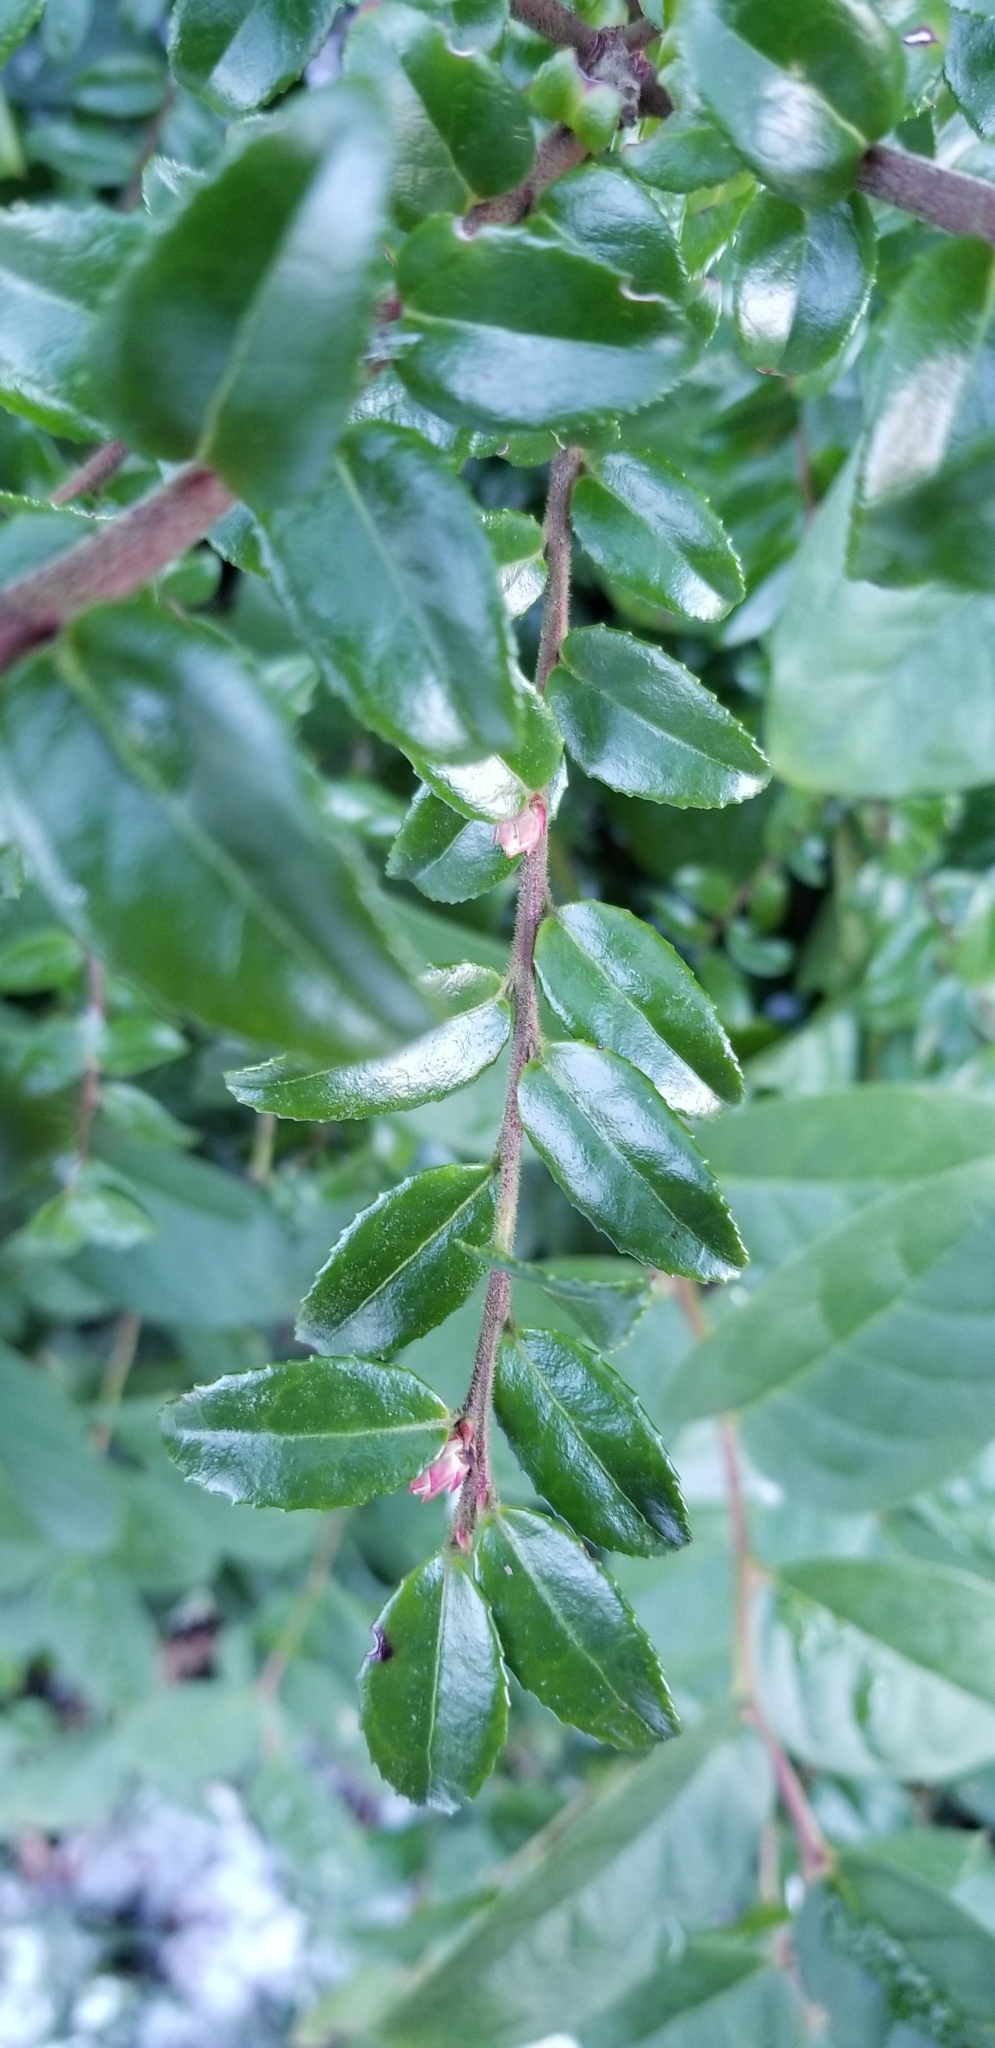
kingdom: Plantae
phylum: Tracheophyta
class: Magnoliopsida
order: Ericales
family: Ericaceae
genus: Vaccinium
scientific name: Vaccinium ovatum
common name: California-huckleberry
